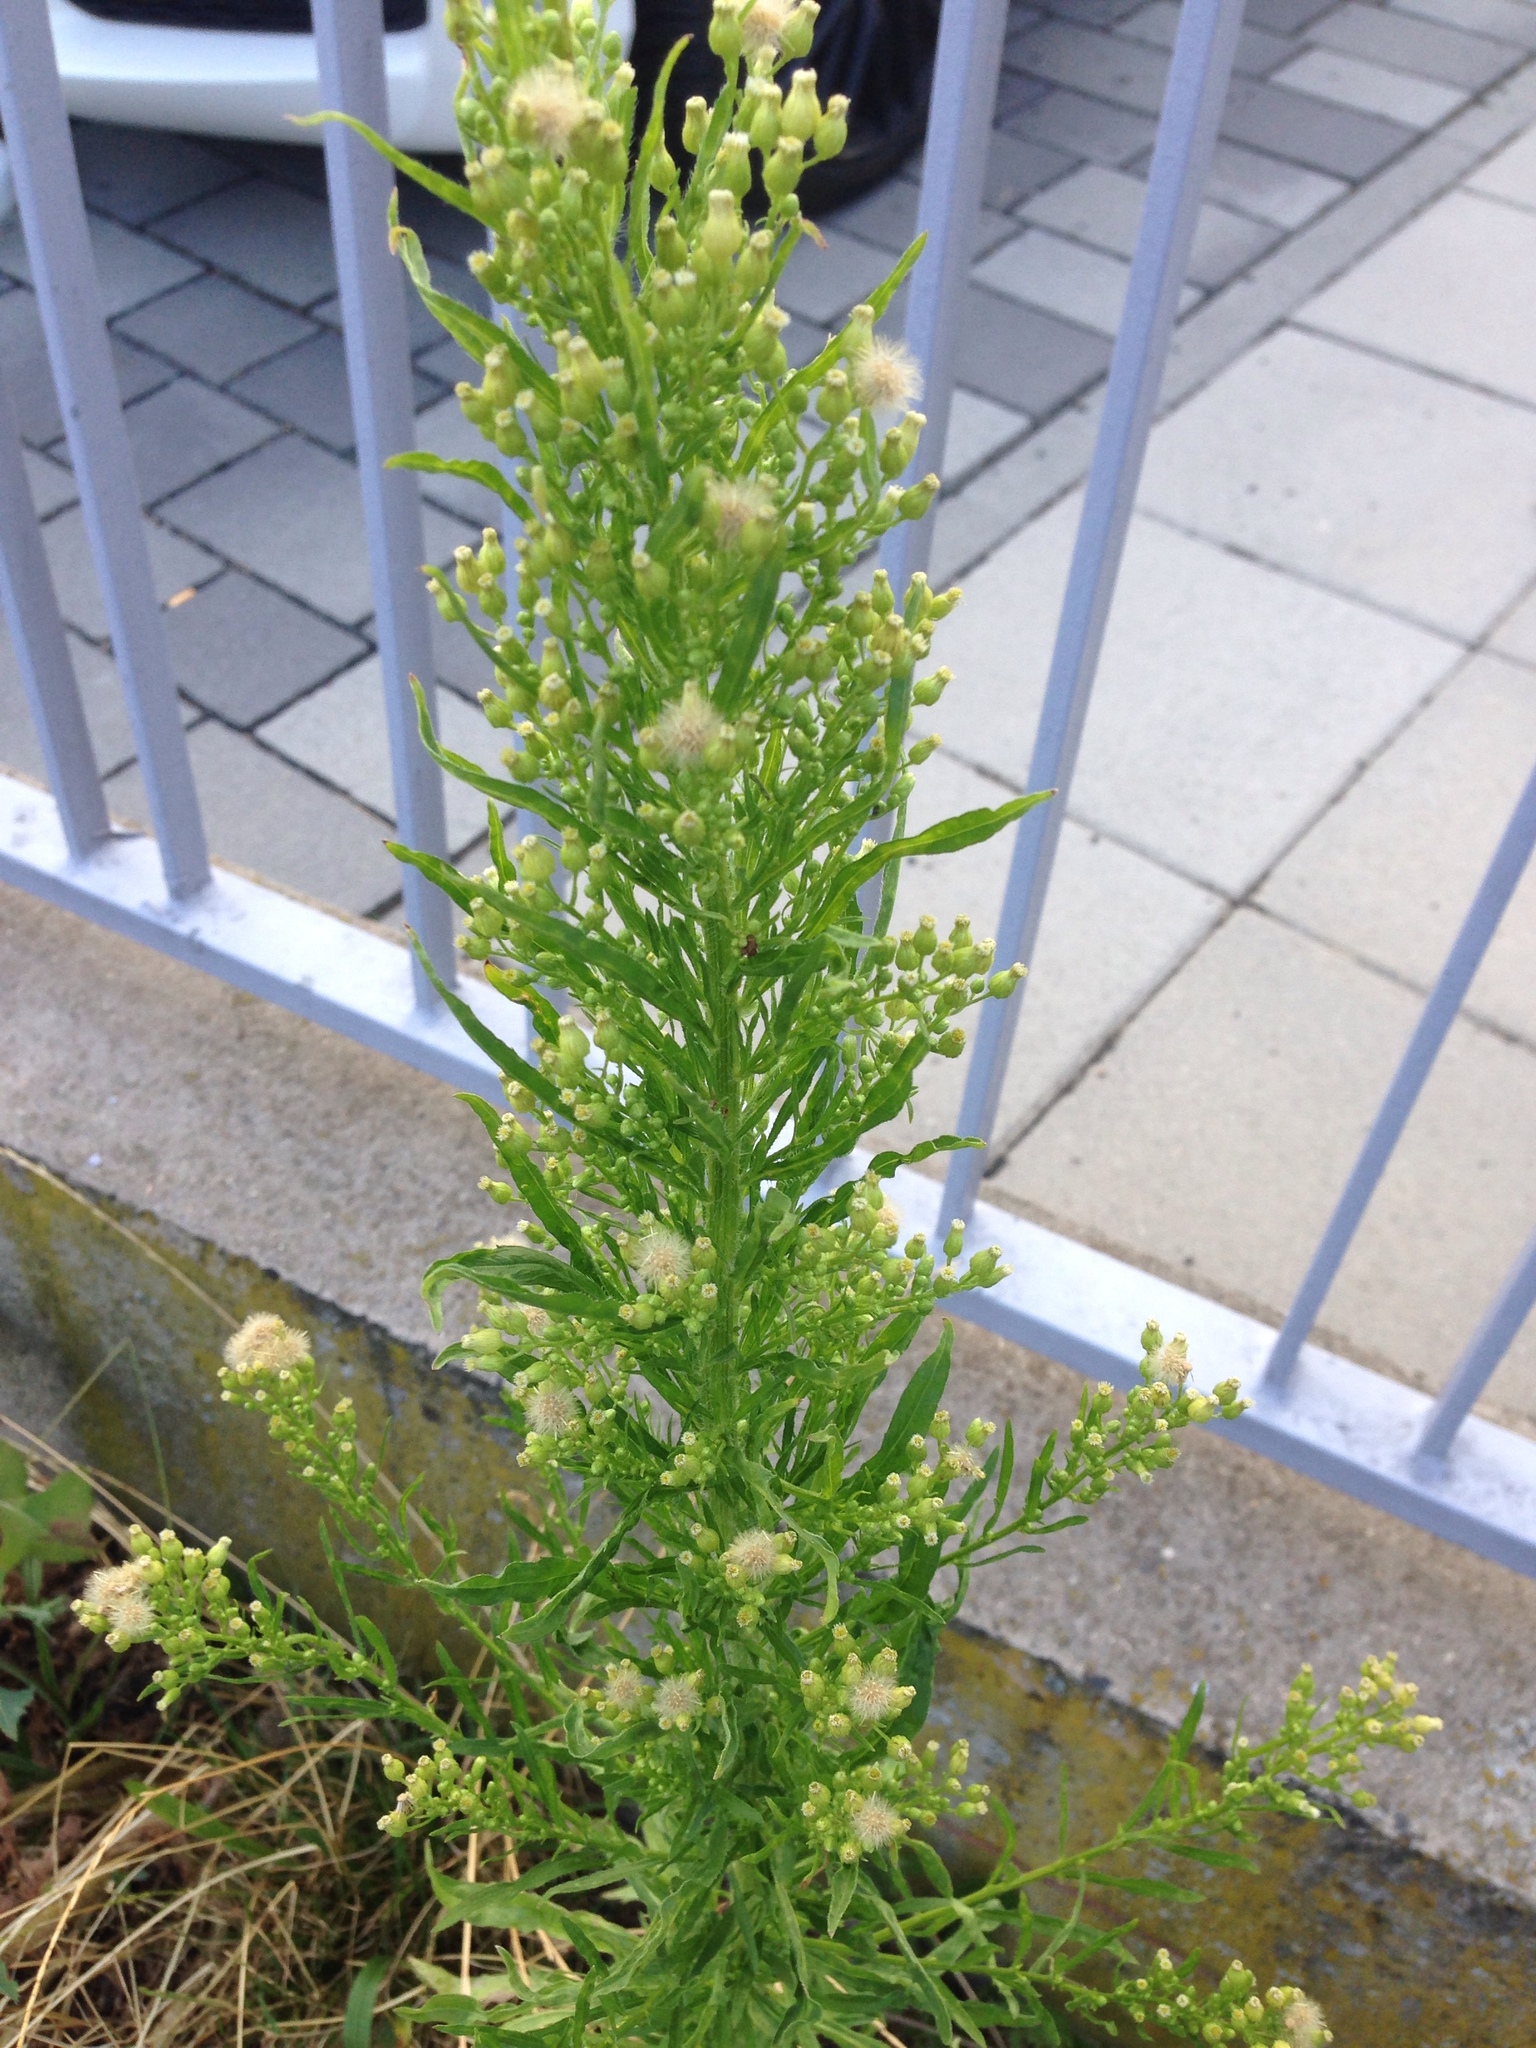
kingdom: Plantae
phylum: Tracheophyta
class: Magnoliopsida
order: Asterales
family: Asteraceae
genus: Erigeron
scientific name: Erigeron canadensis
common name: Canadian fleabane
